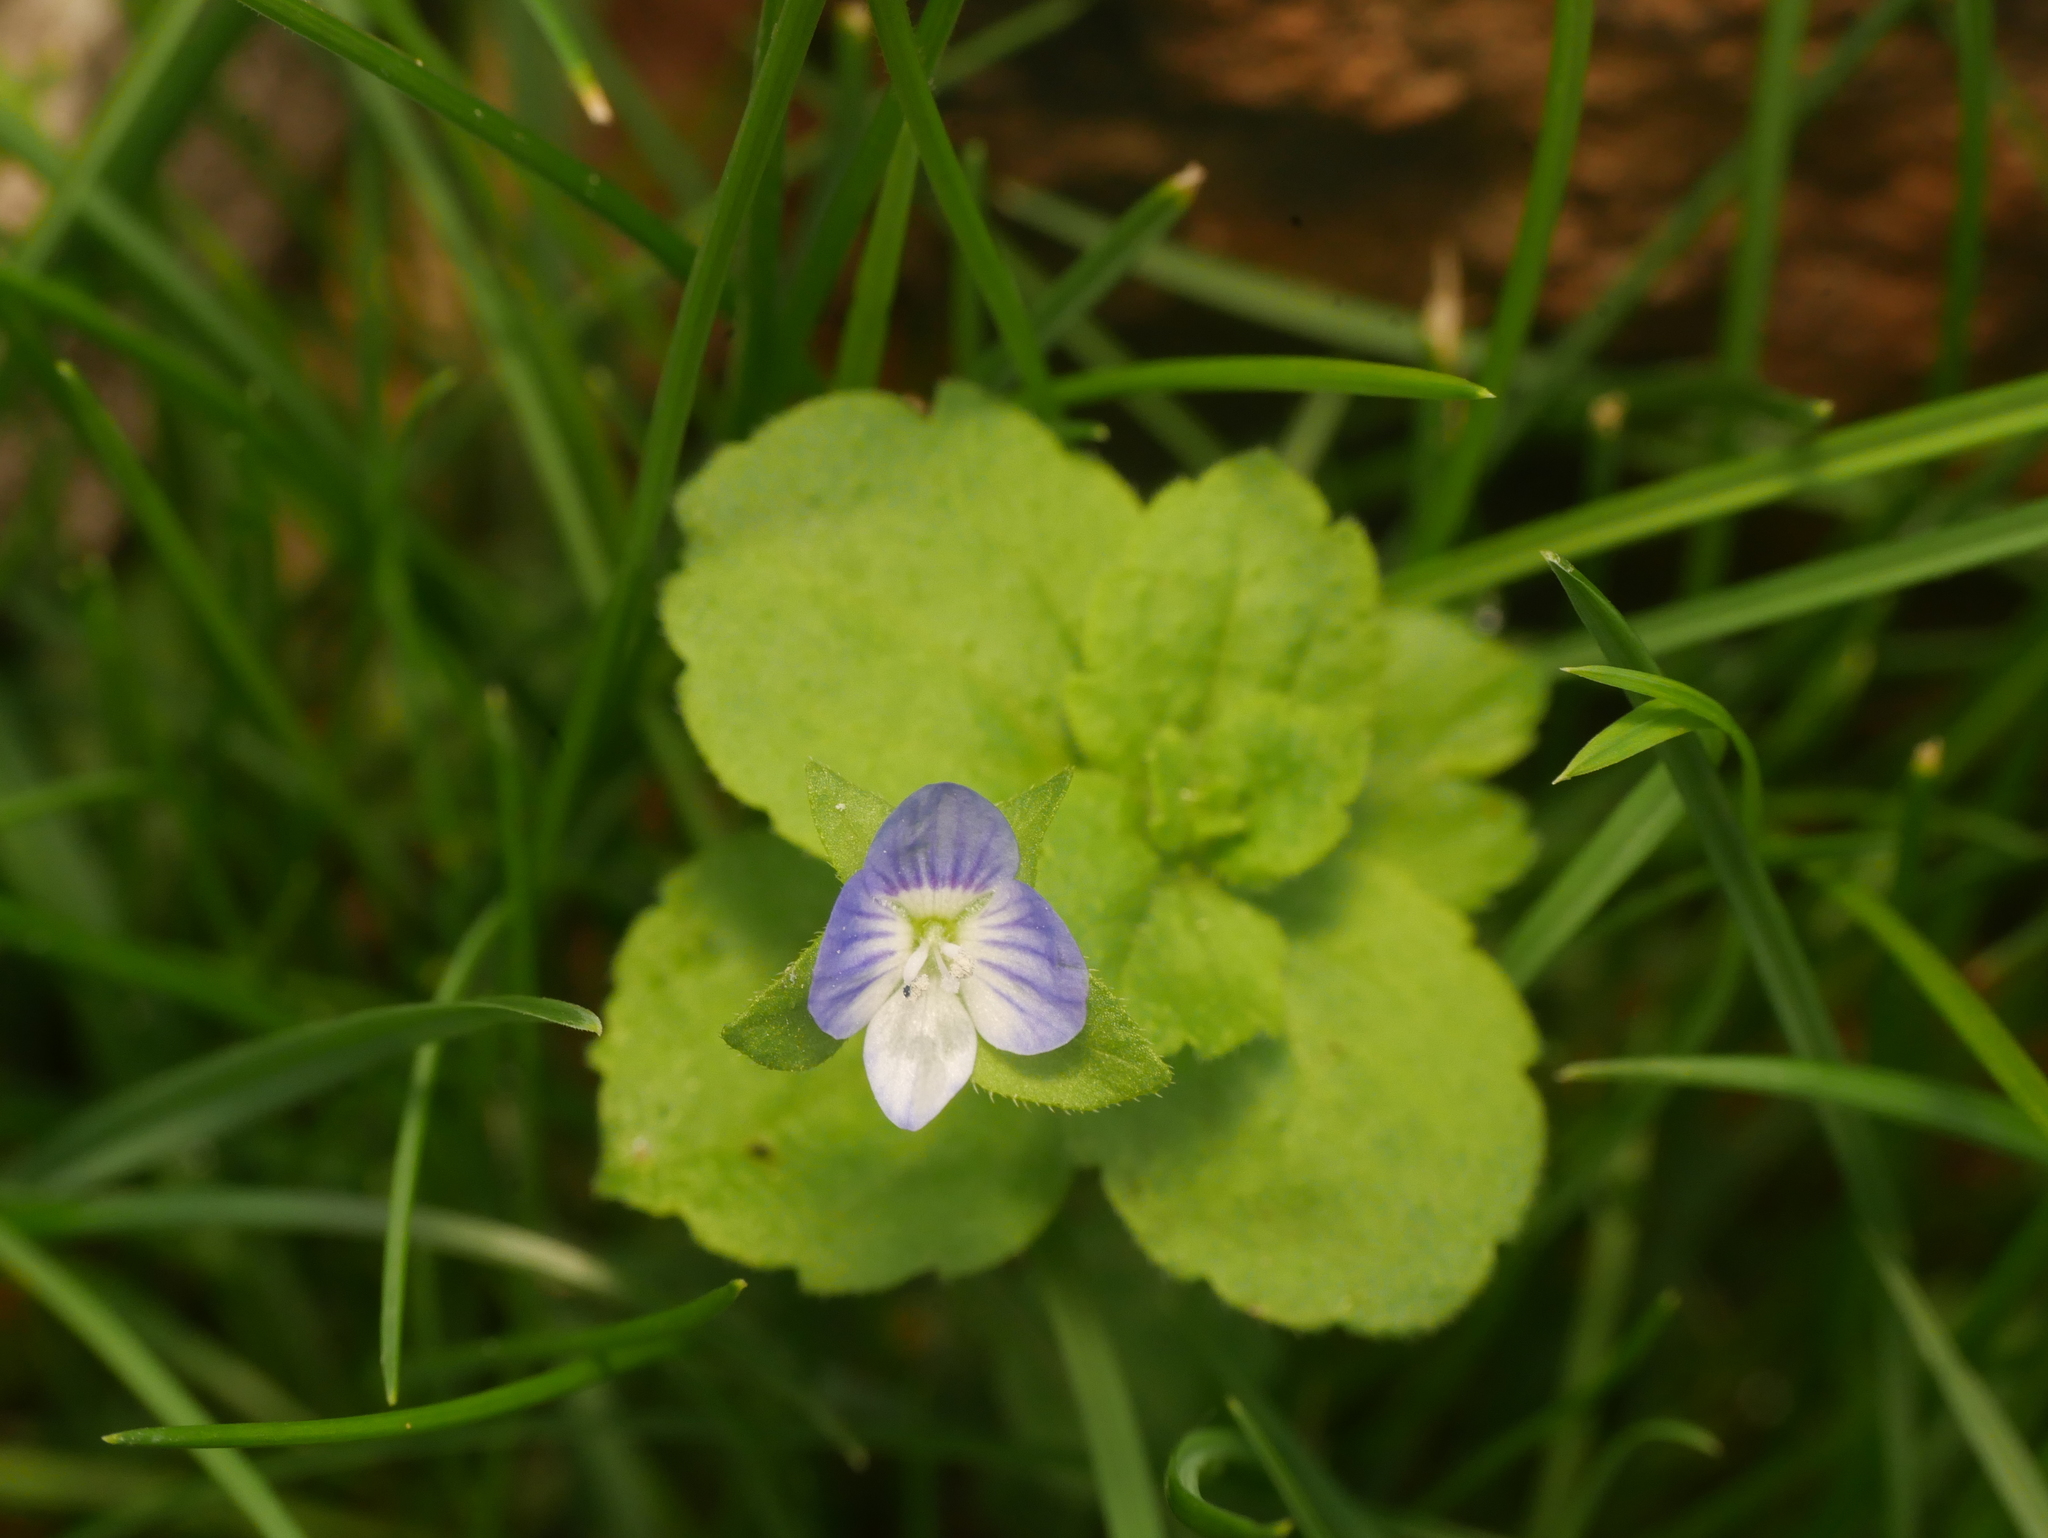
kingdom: Plantae
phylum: Tracheophyta
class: Magnoliopsida
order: Lamiales
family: Plantaginaceae
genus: Veronica
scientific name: Veronica persica
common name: Common field-speedwell
